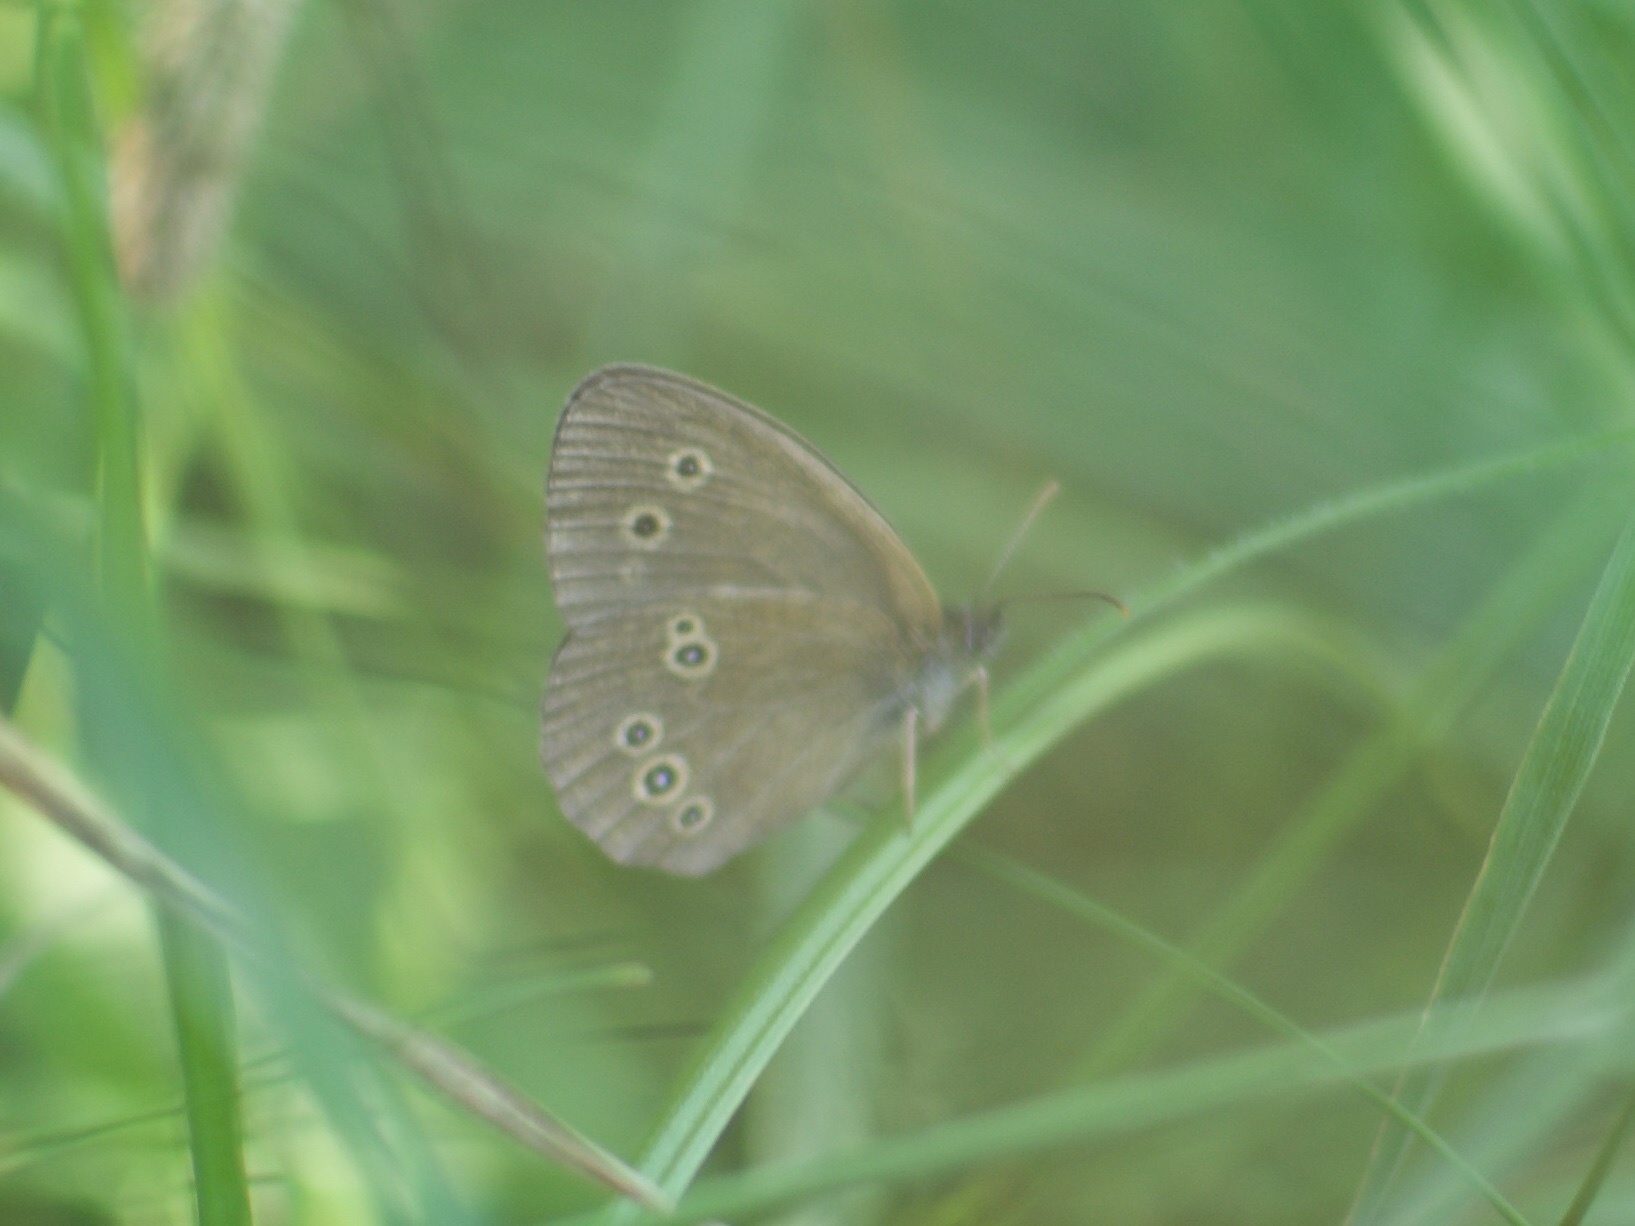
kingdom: Animalia
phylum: Arthropoda
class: Insecta
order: Lepidoptera
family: Nymphalidae
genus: Aphantopus
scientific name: Aphantopus hyperantus
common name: Ringlet
